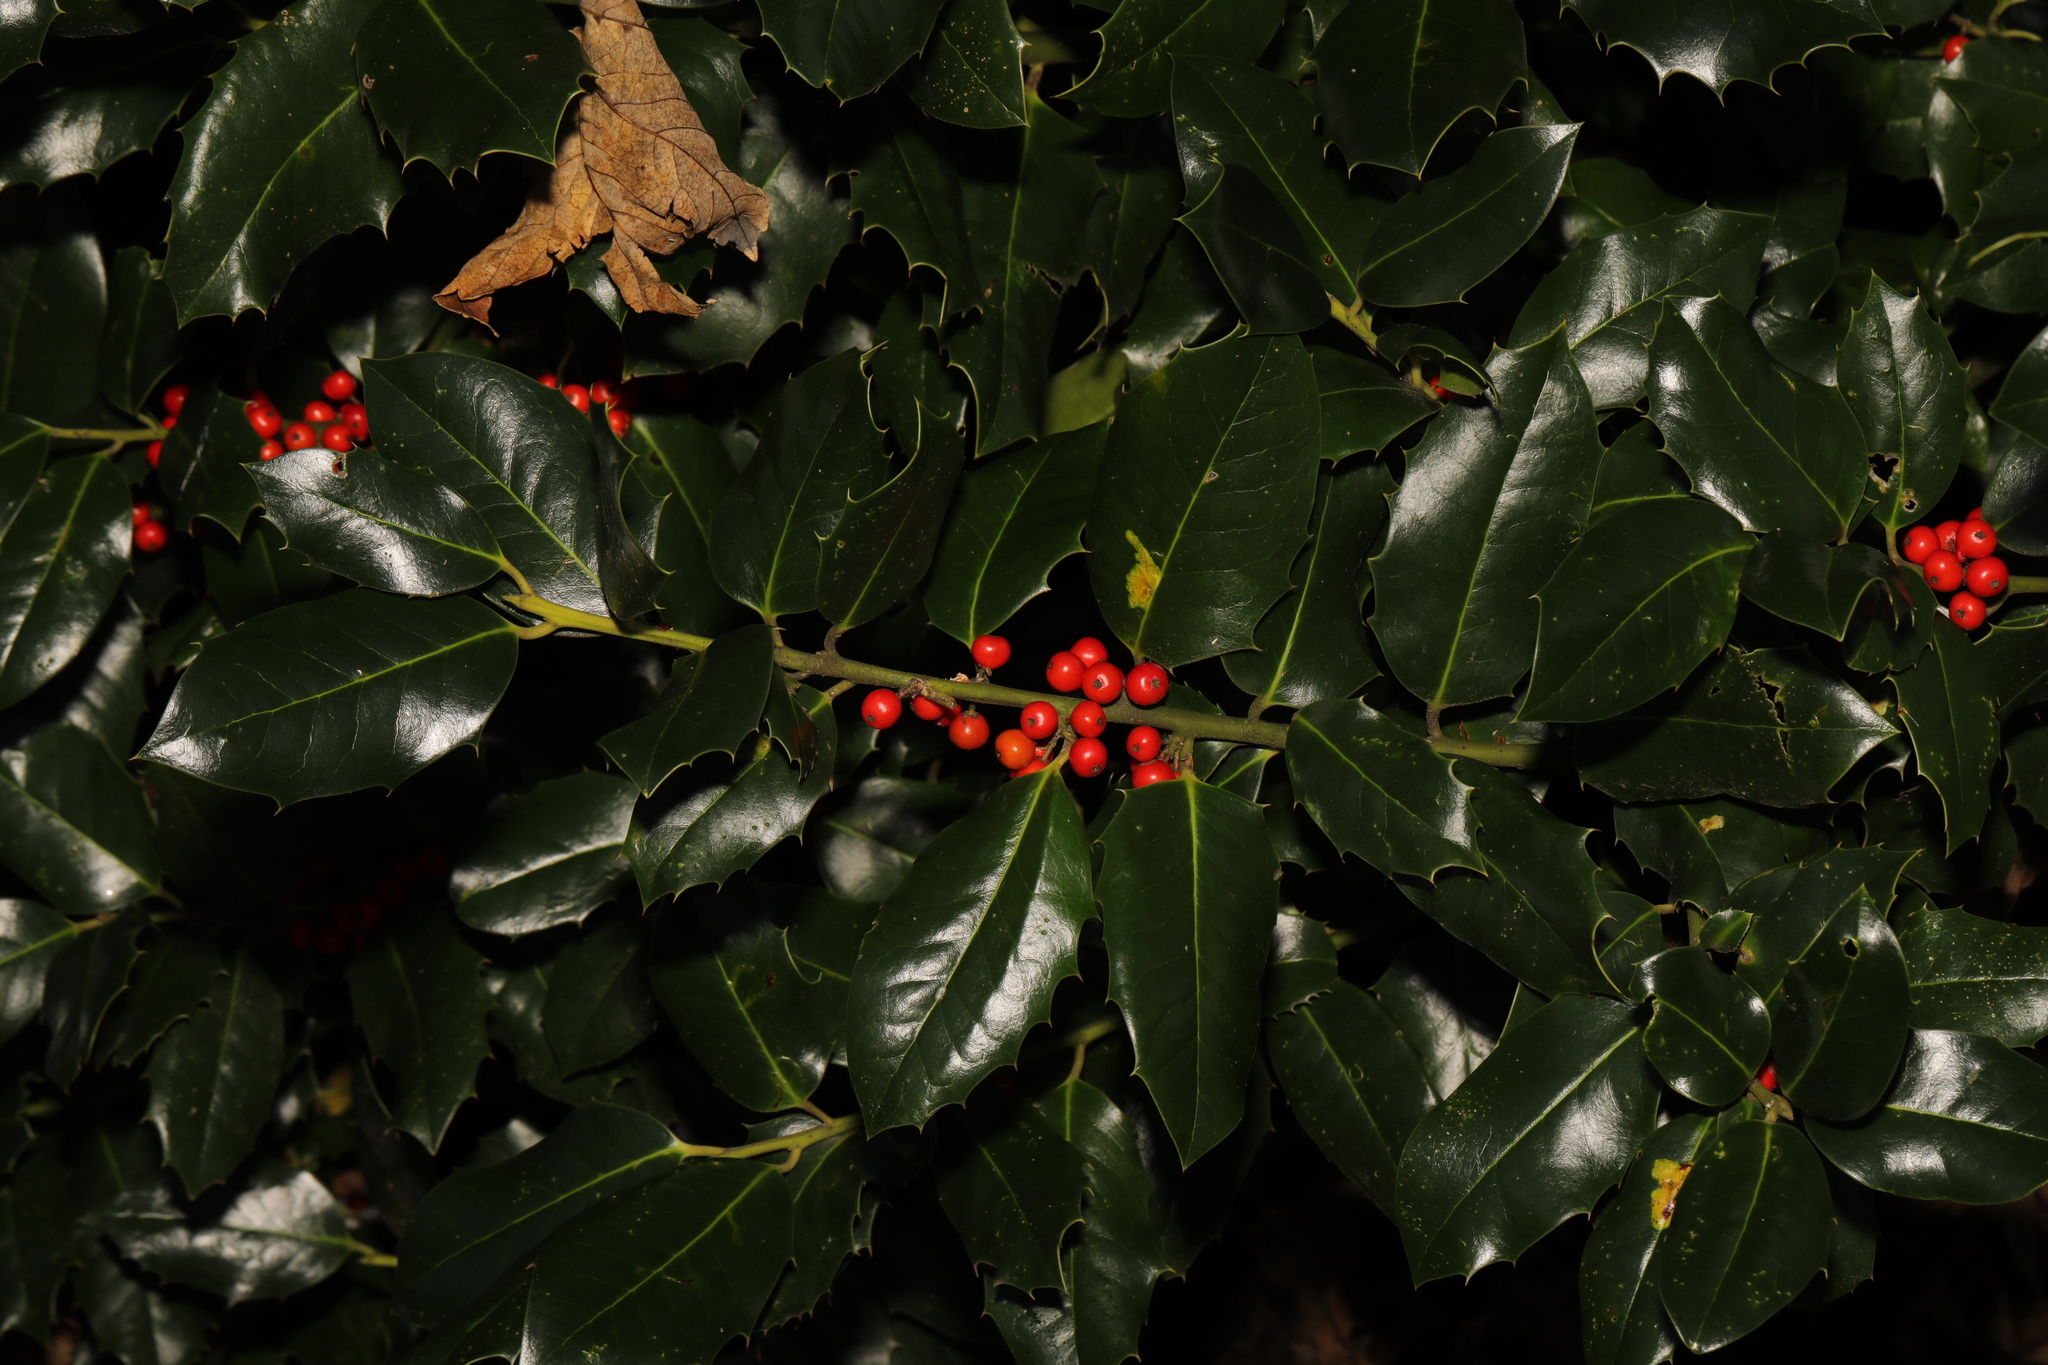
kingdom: Plantae
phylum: Tracheophyta
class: Magnoliopsida
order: Aquifoliales
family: Aquifoliaceae
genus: Ilex
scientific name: Ilex aquifolium
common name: English holly
